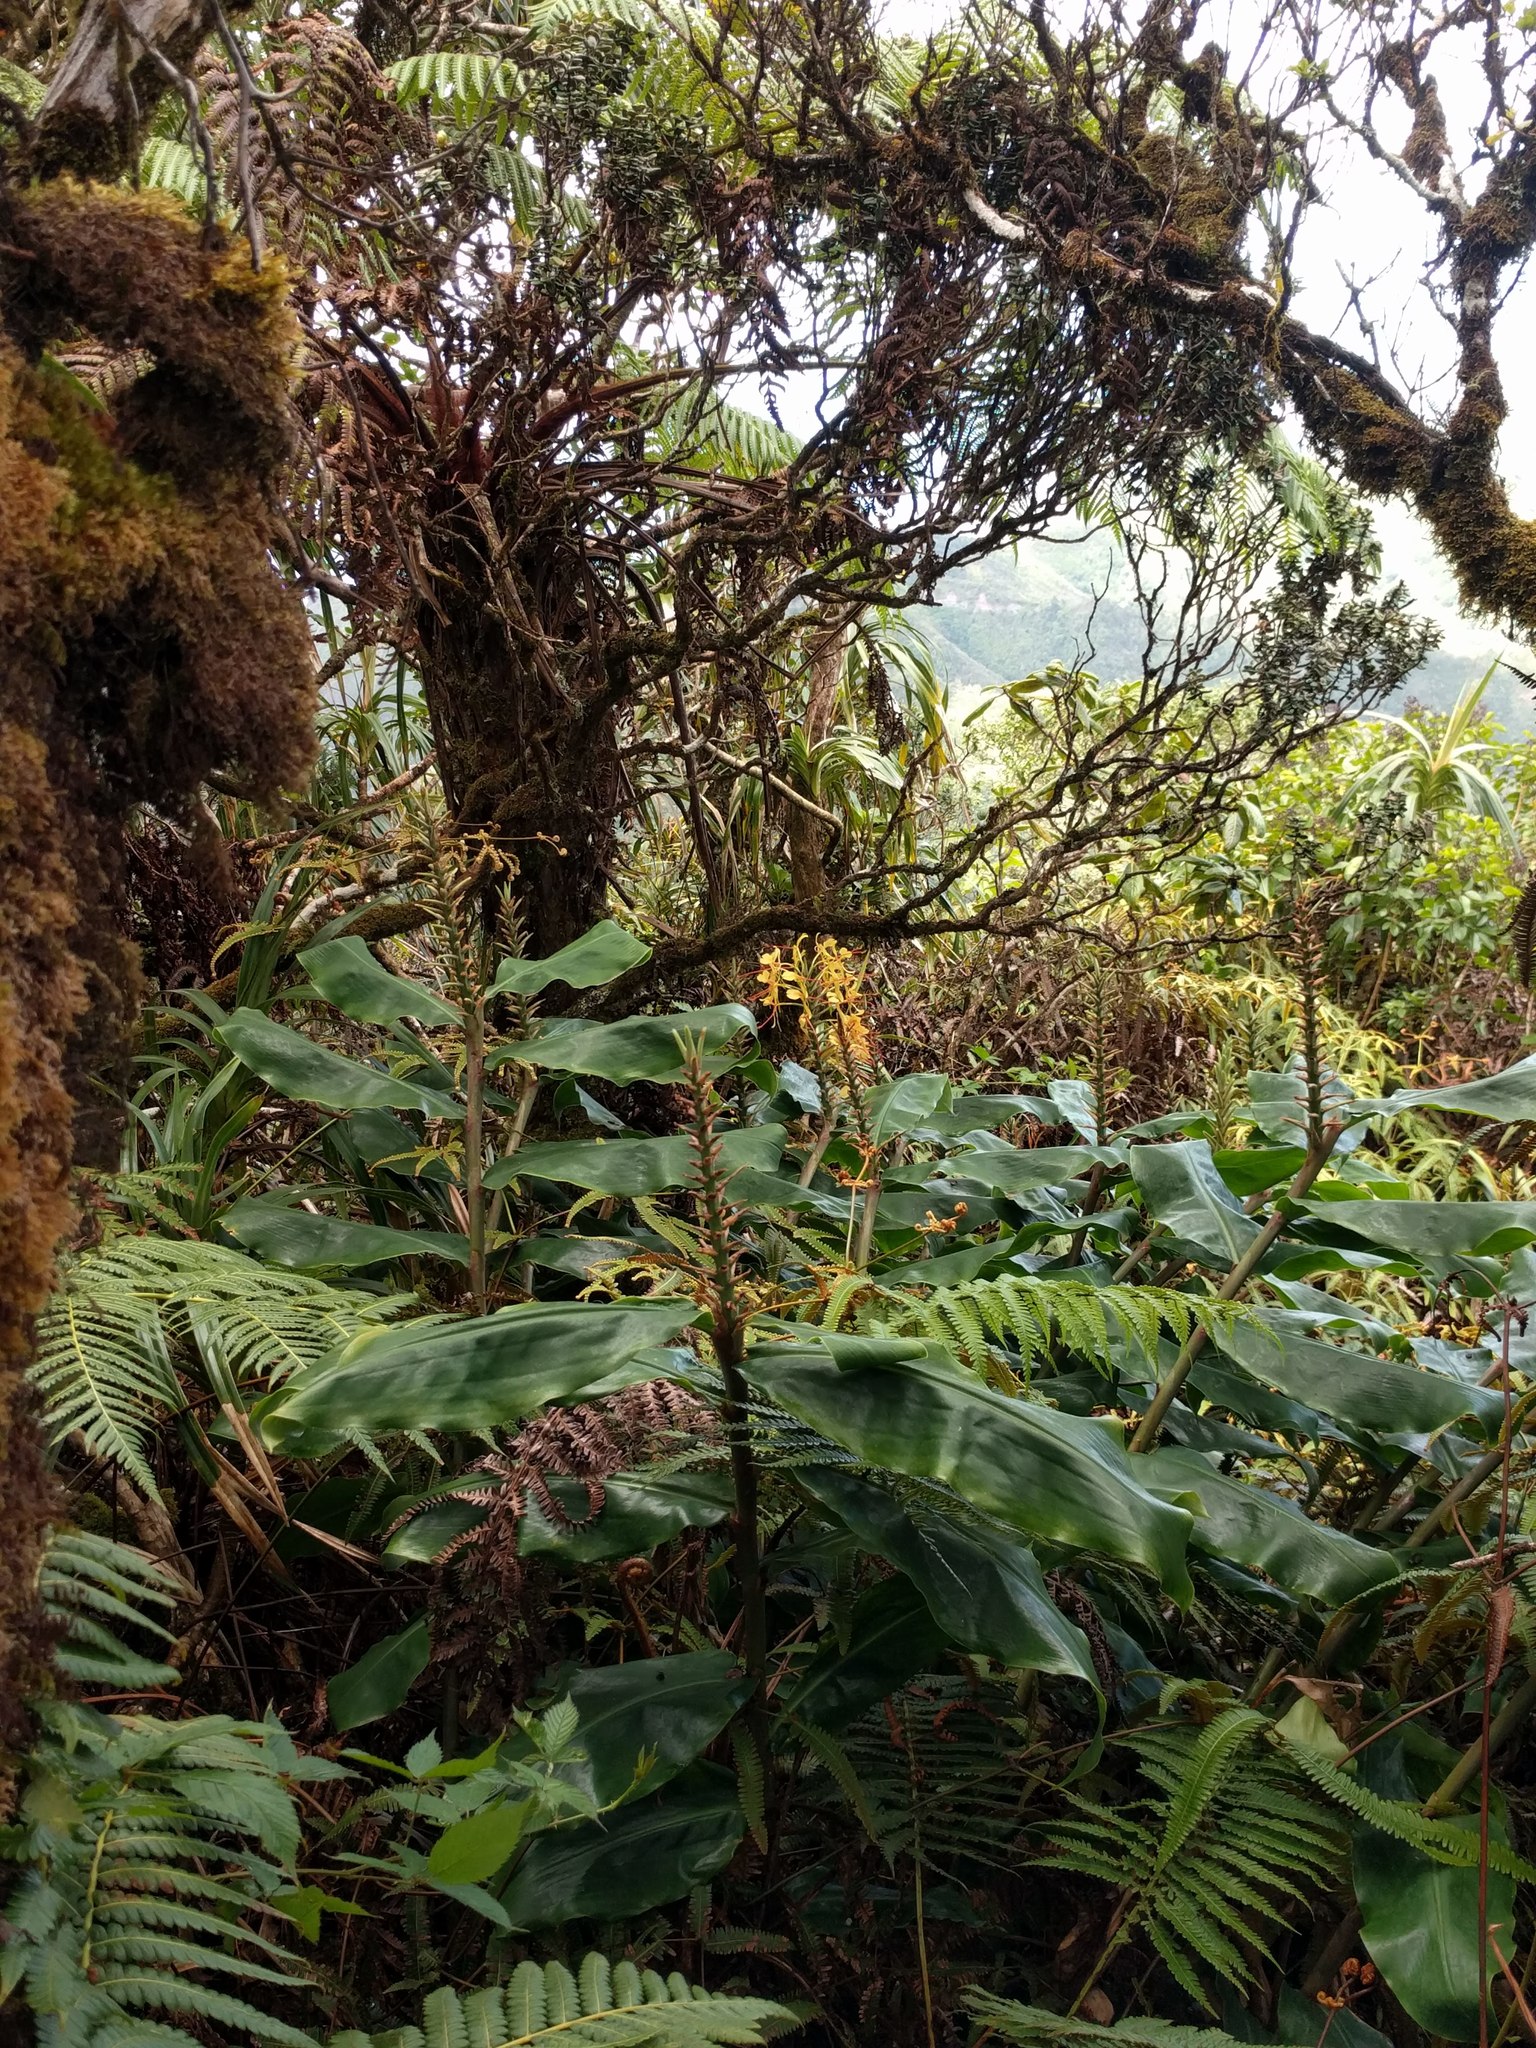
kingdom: Plantae
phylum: Tracheophyta
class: Liliopsida
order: Zingiberales
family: Zingiberaceae
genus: Hedychium
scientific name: Hedychium gardnerianum
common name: Himalayan ginger
